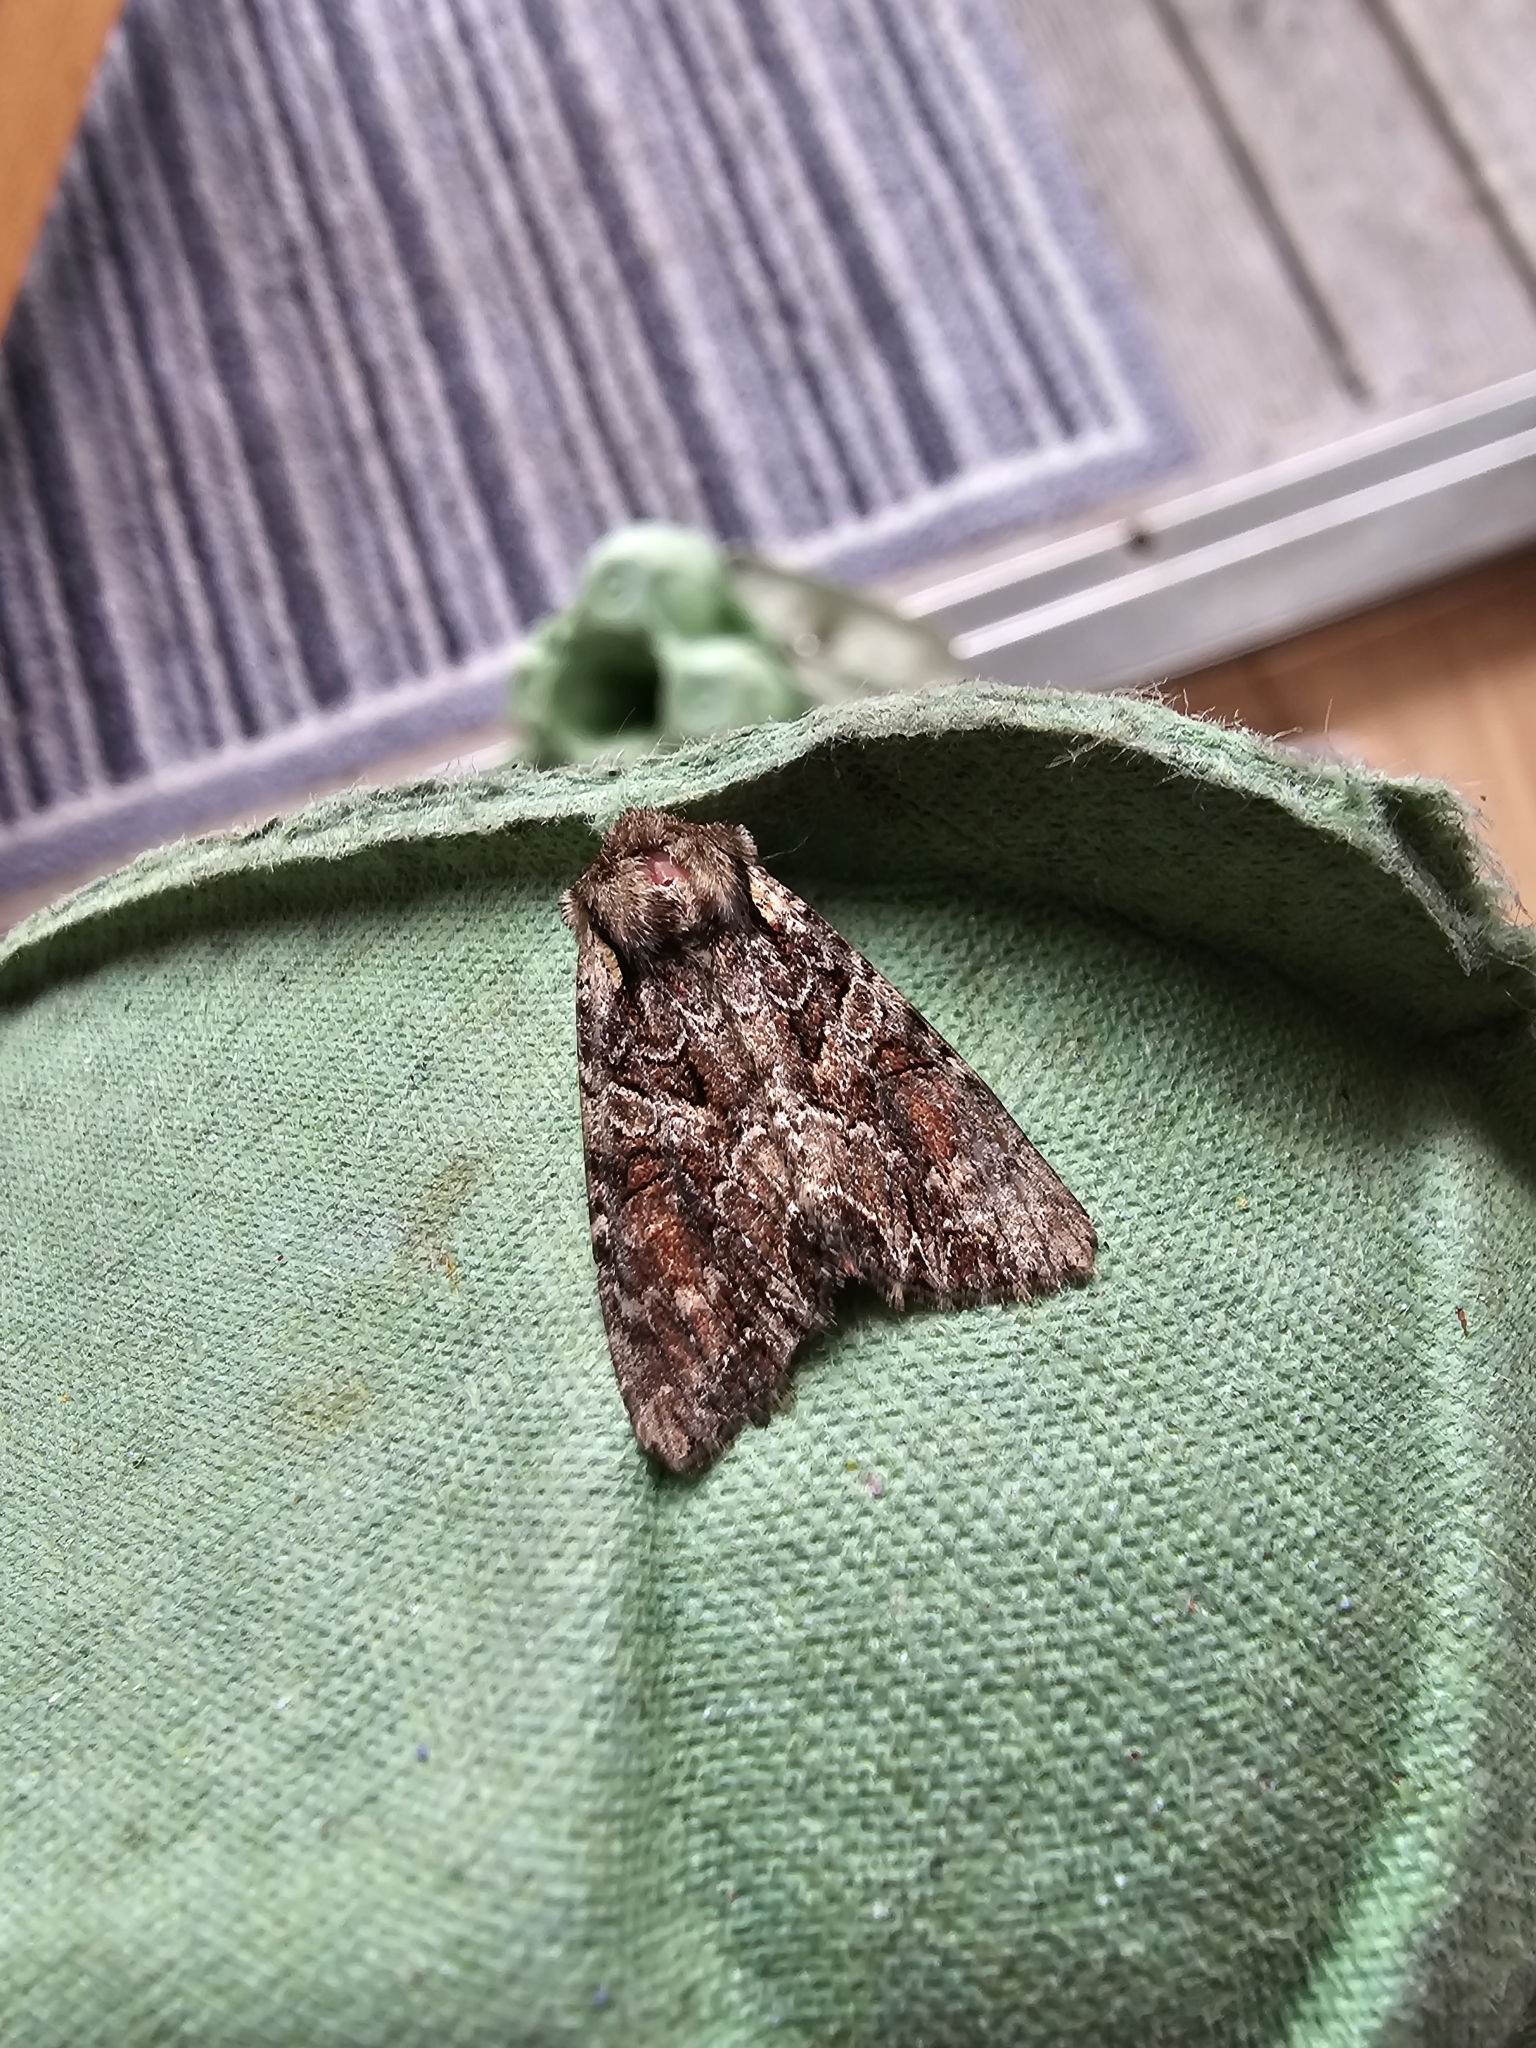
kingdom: Animalia
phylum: Arthropoda
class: Insecta
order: Lepidoptera
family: Noctuidae
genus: Lacanobia
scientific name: Lacanobia thalassina
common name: Pale-shouldered brocade
